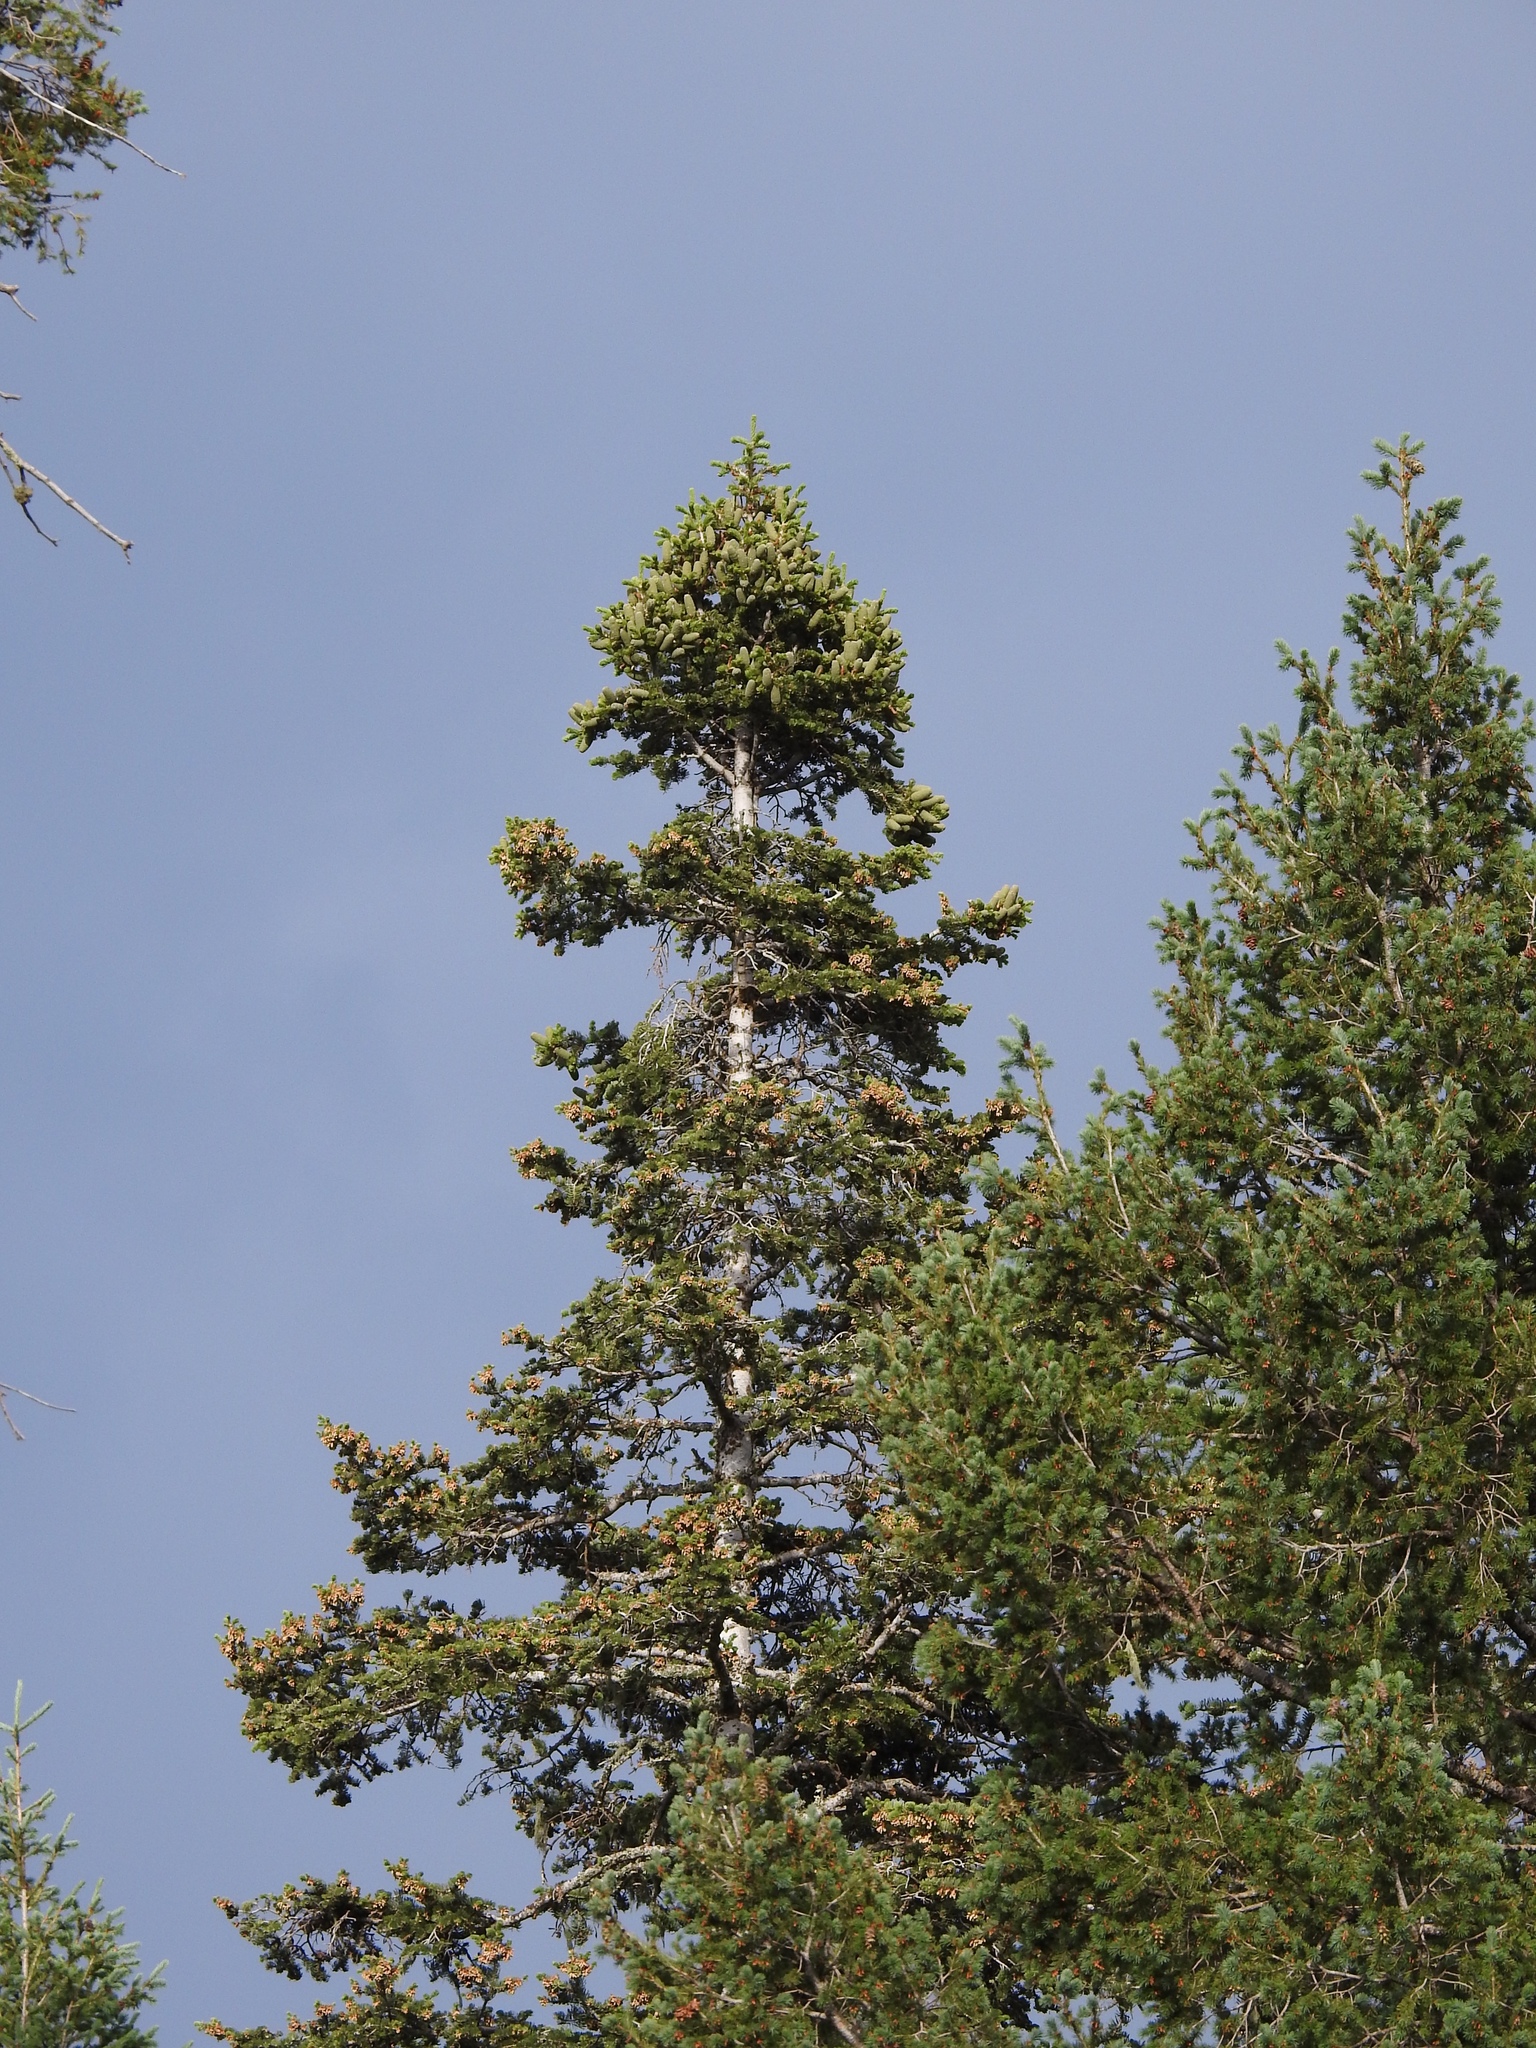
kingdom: Plantae
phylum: Tracheophyta
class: Pinopsida
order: Pinales
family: Pinaceae
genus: Abies
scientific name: Abies concolor
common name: Colorado fir
